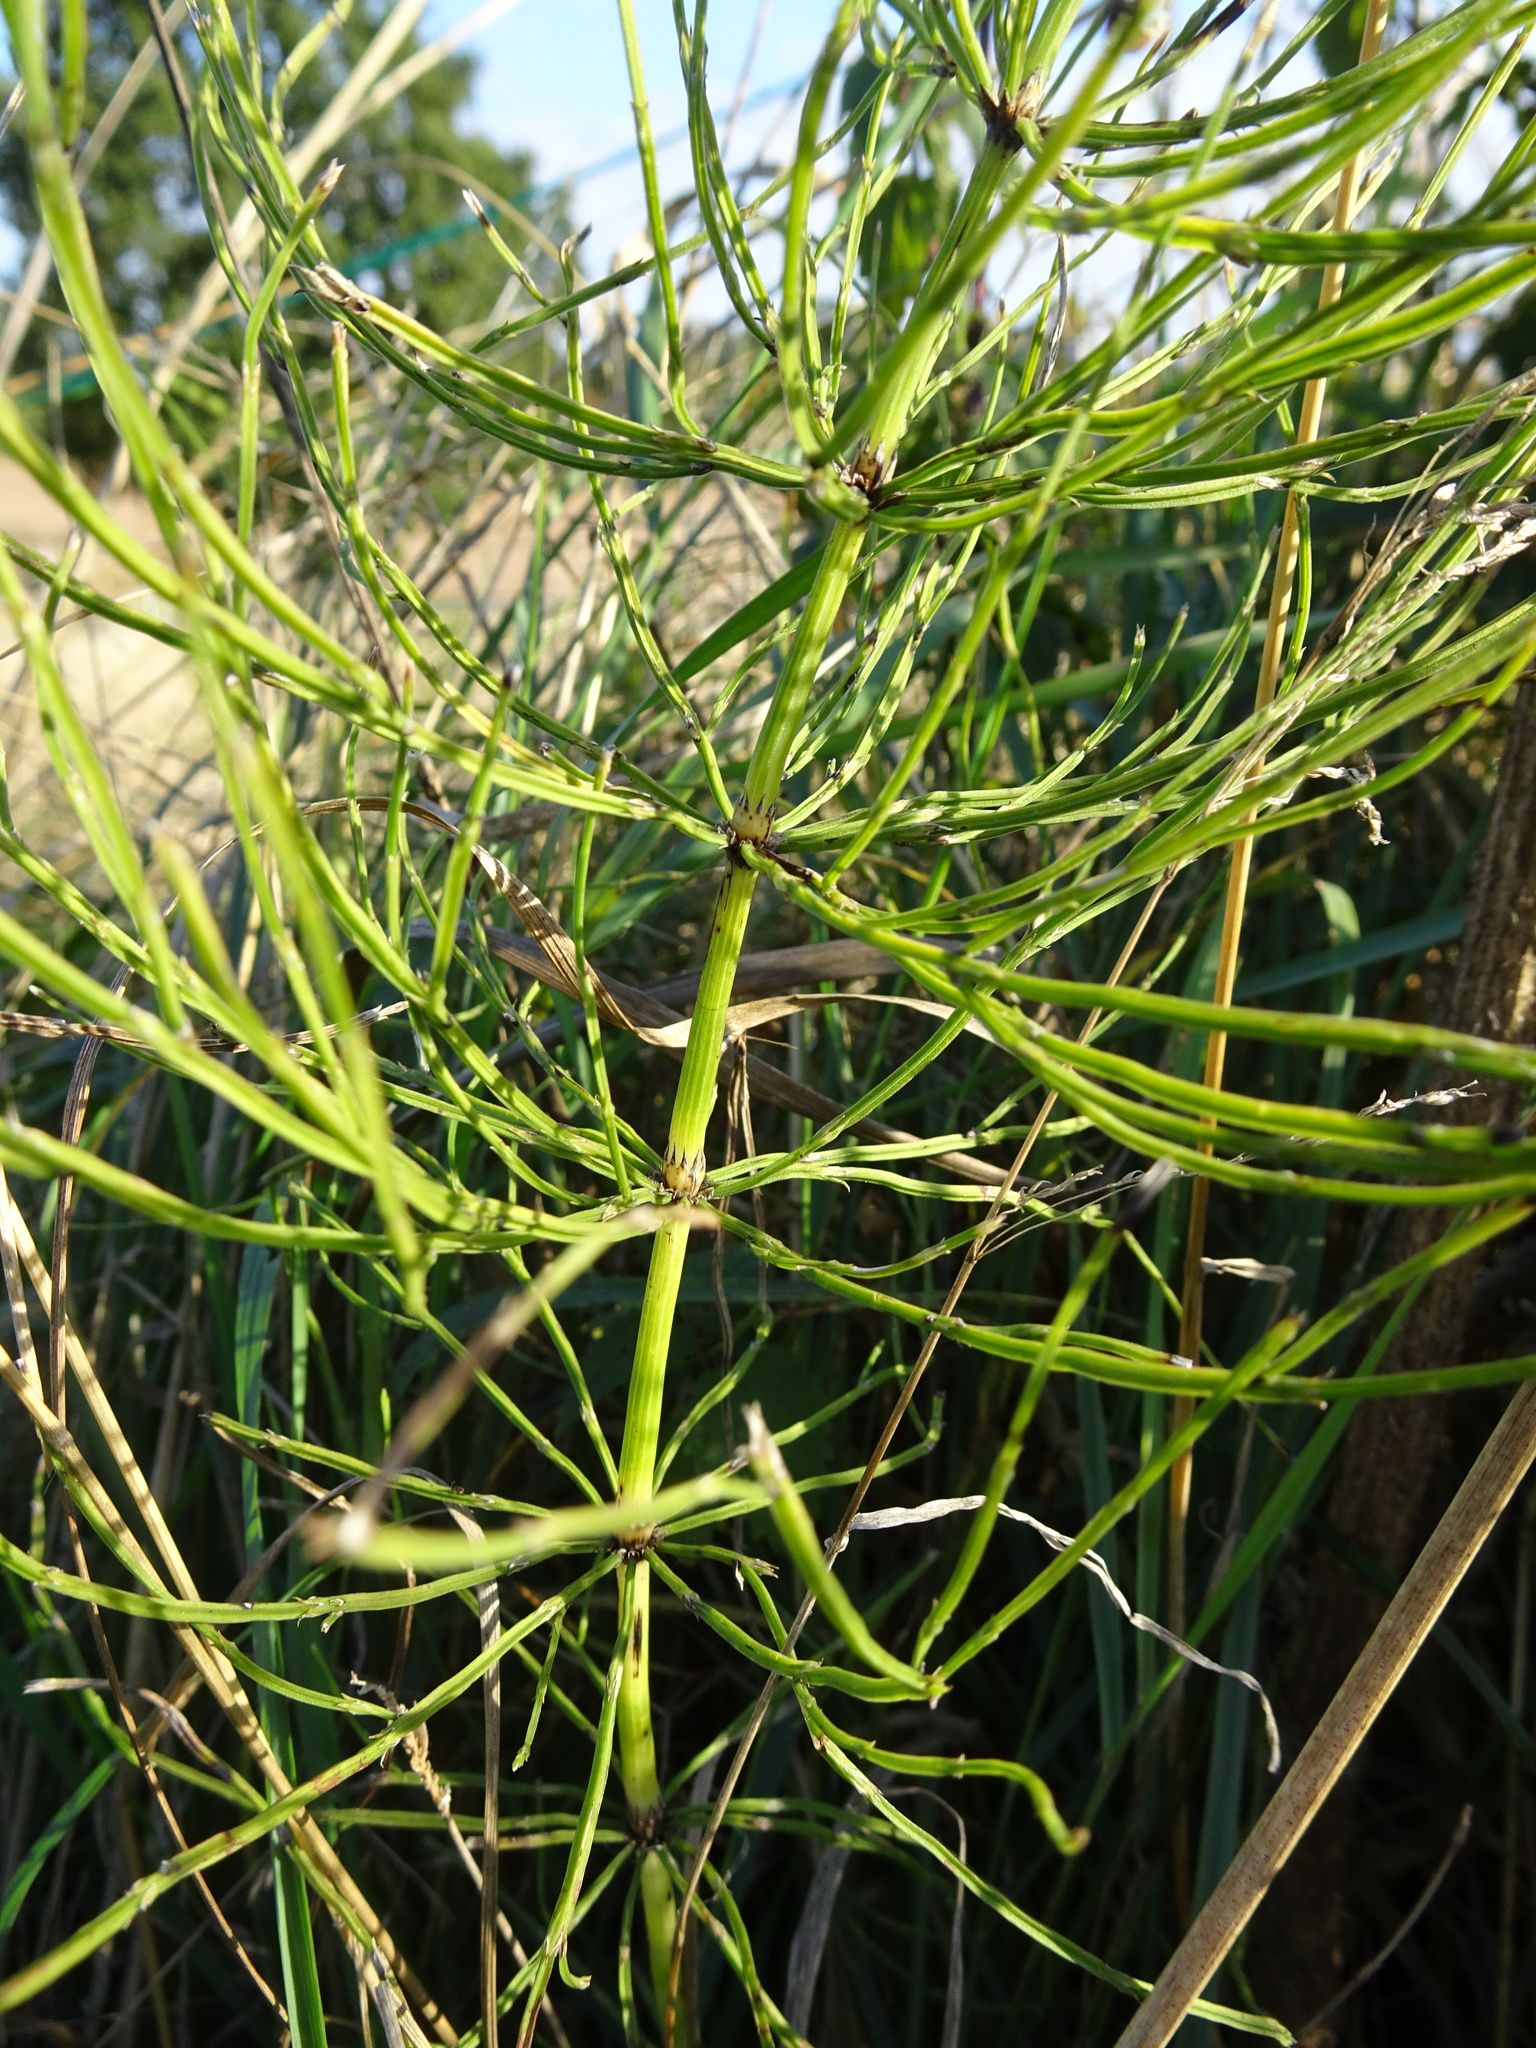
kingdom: Plantae
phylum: Tracheophyta
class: Polypodiopsida
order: Equisetales
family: Equisetaceae
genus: Equisetum
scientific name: Equisetum arvense
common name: Field horsetail
